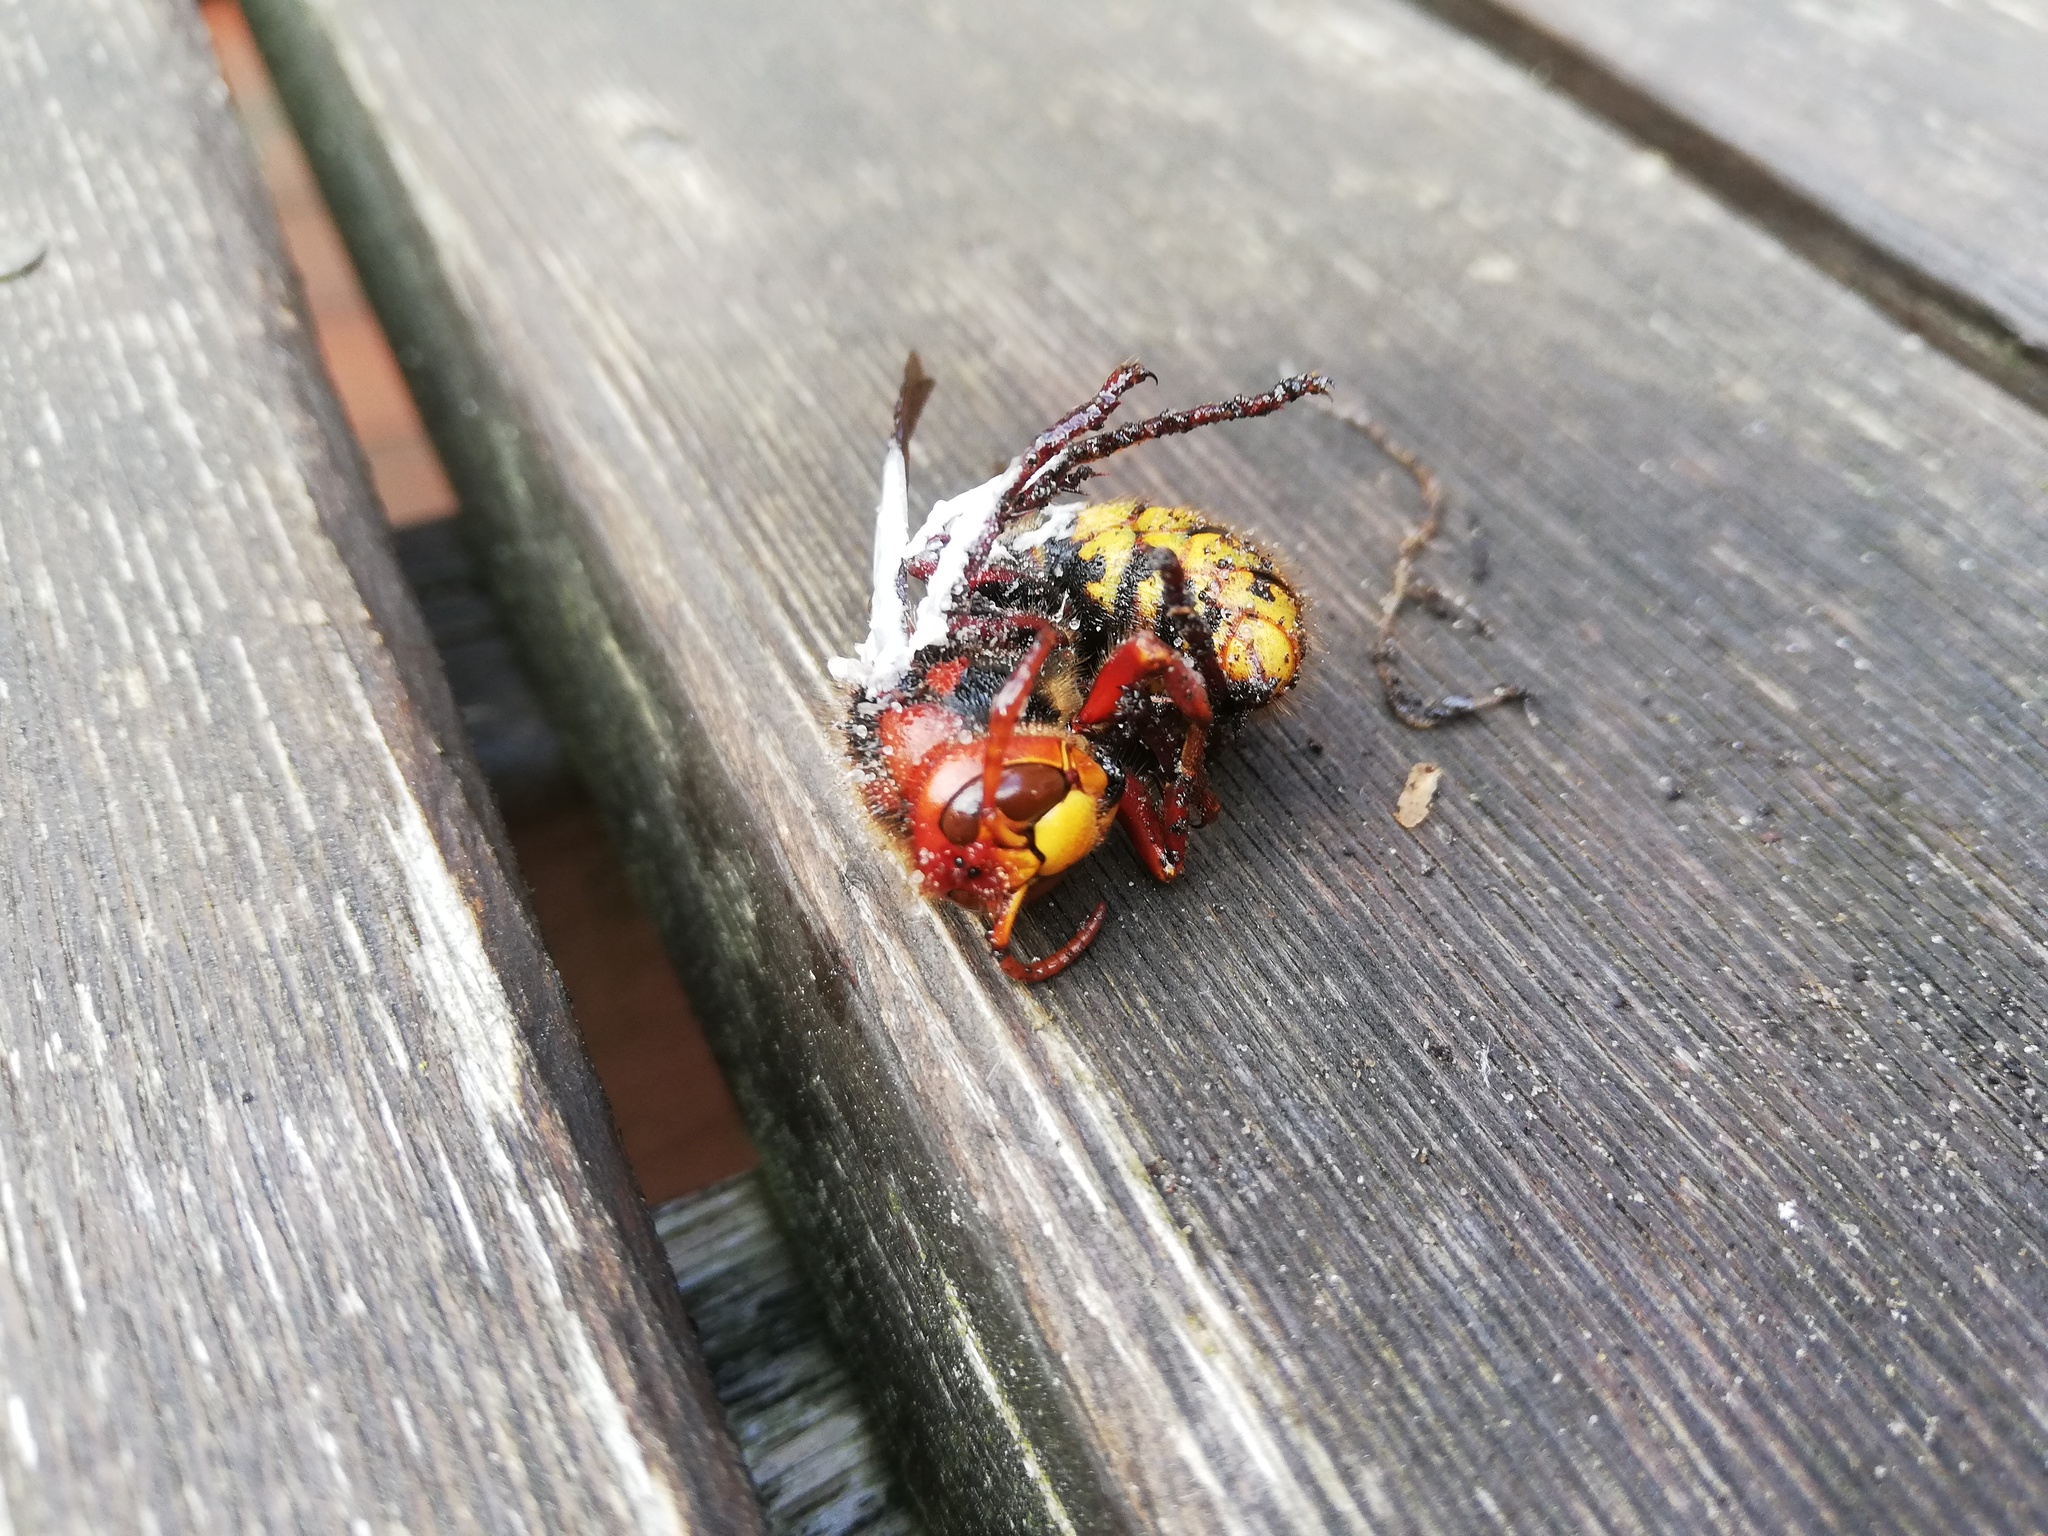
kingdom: Animalia
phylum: Arthropoda
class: Insecta
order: Hymenoptera
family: Vespidae
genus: Vespa
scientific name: Vespa crabro
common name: Hornet
